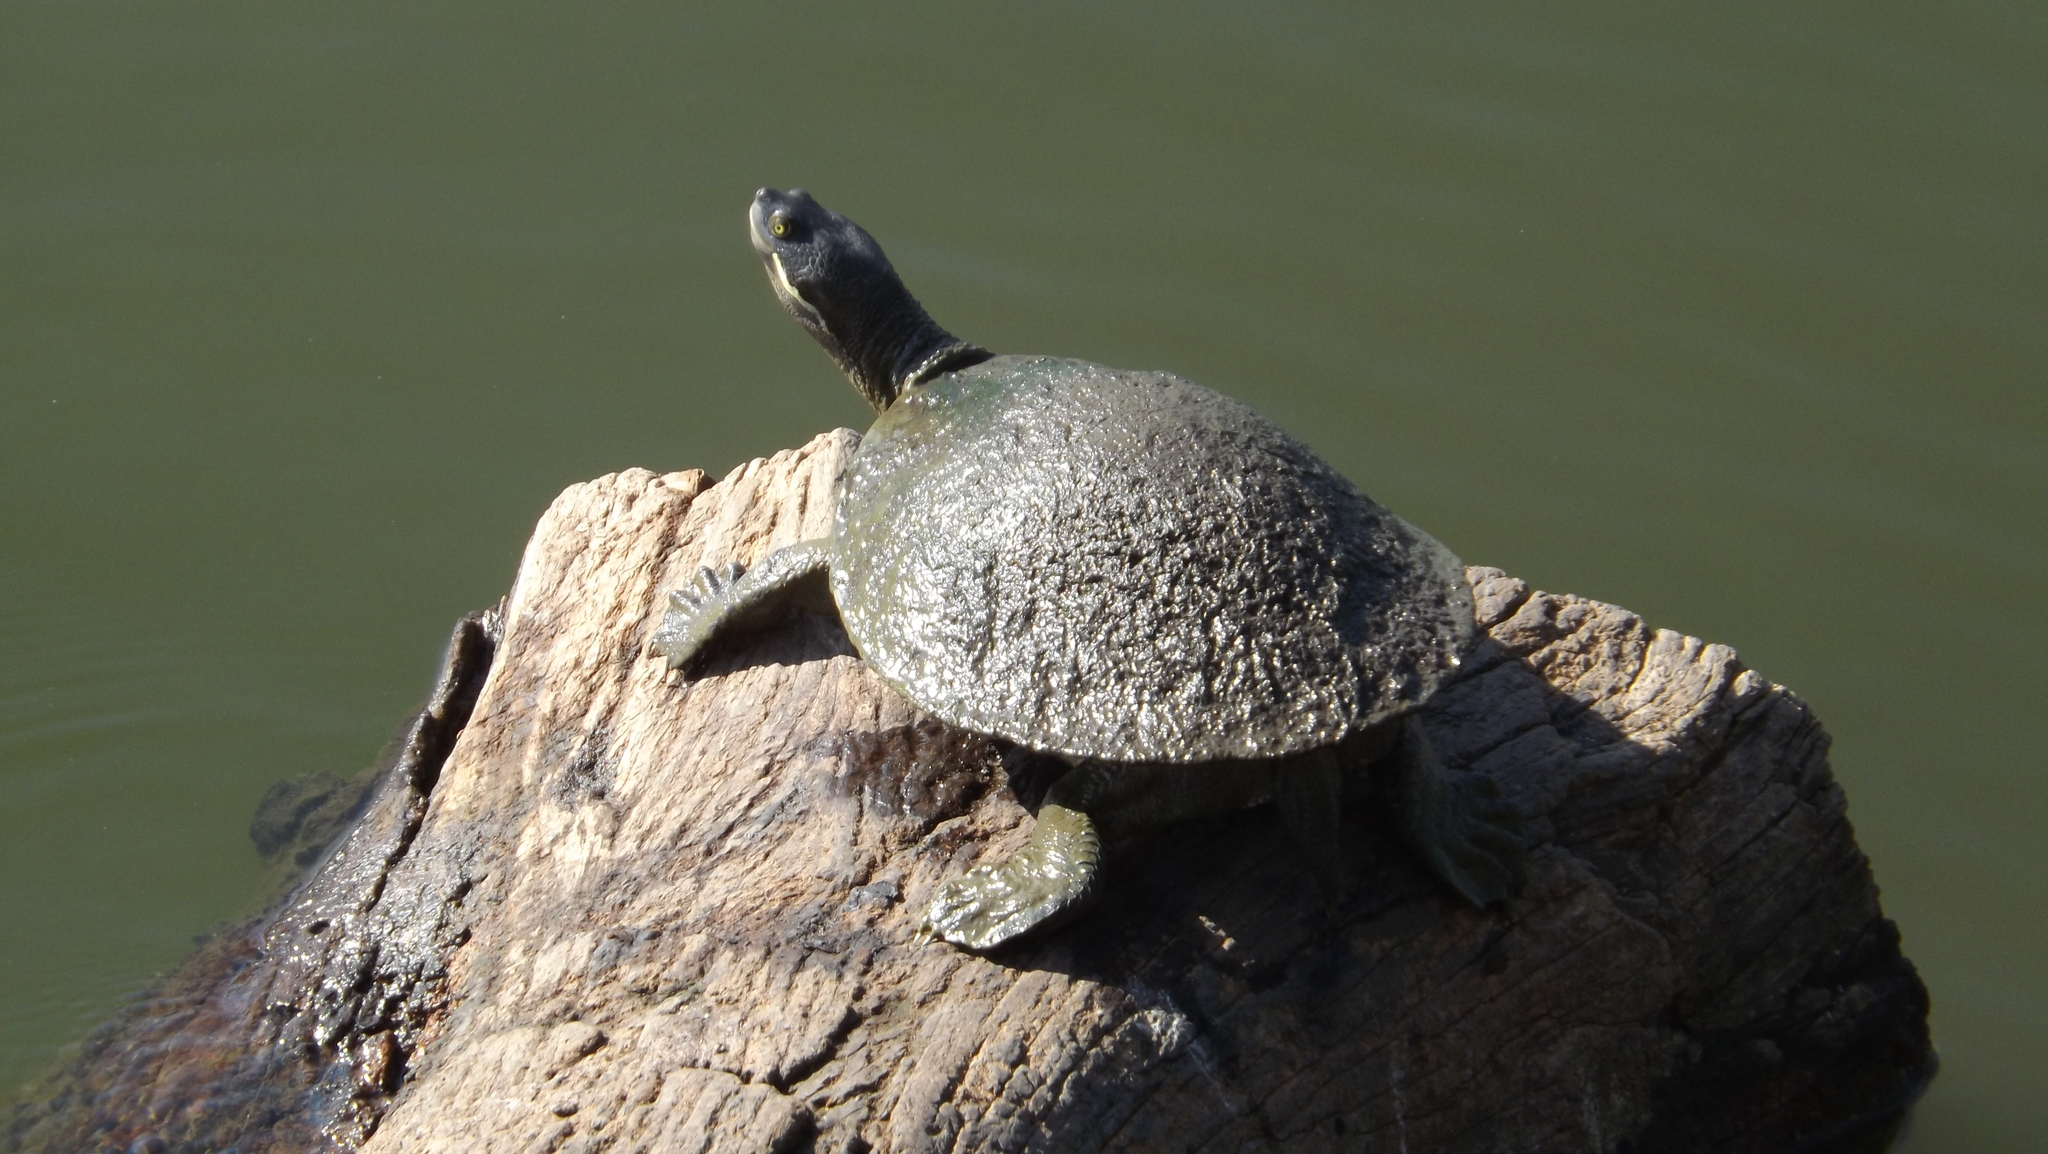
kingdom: Animalia
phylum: Chordata
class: Testudines
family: Chelidae
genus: Emydura
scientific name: Emydura macquarii
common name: Murray river turtle
